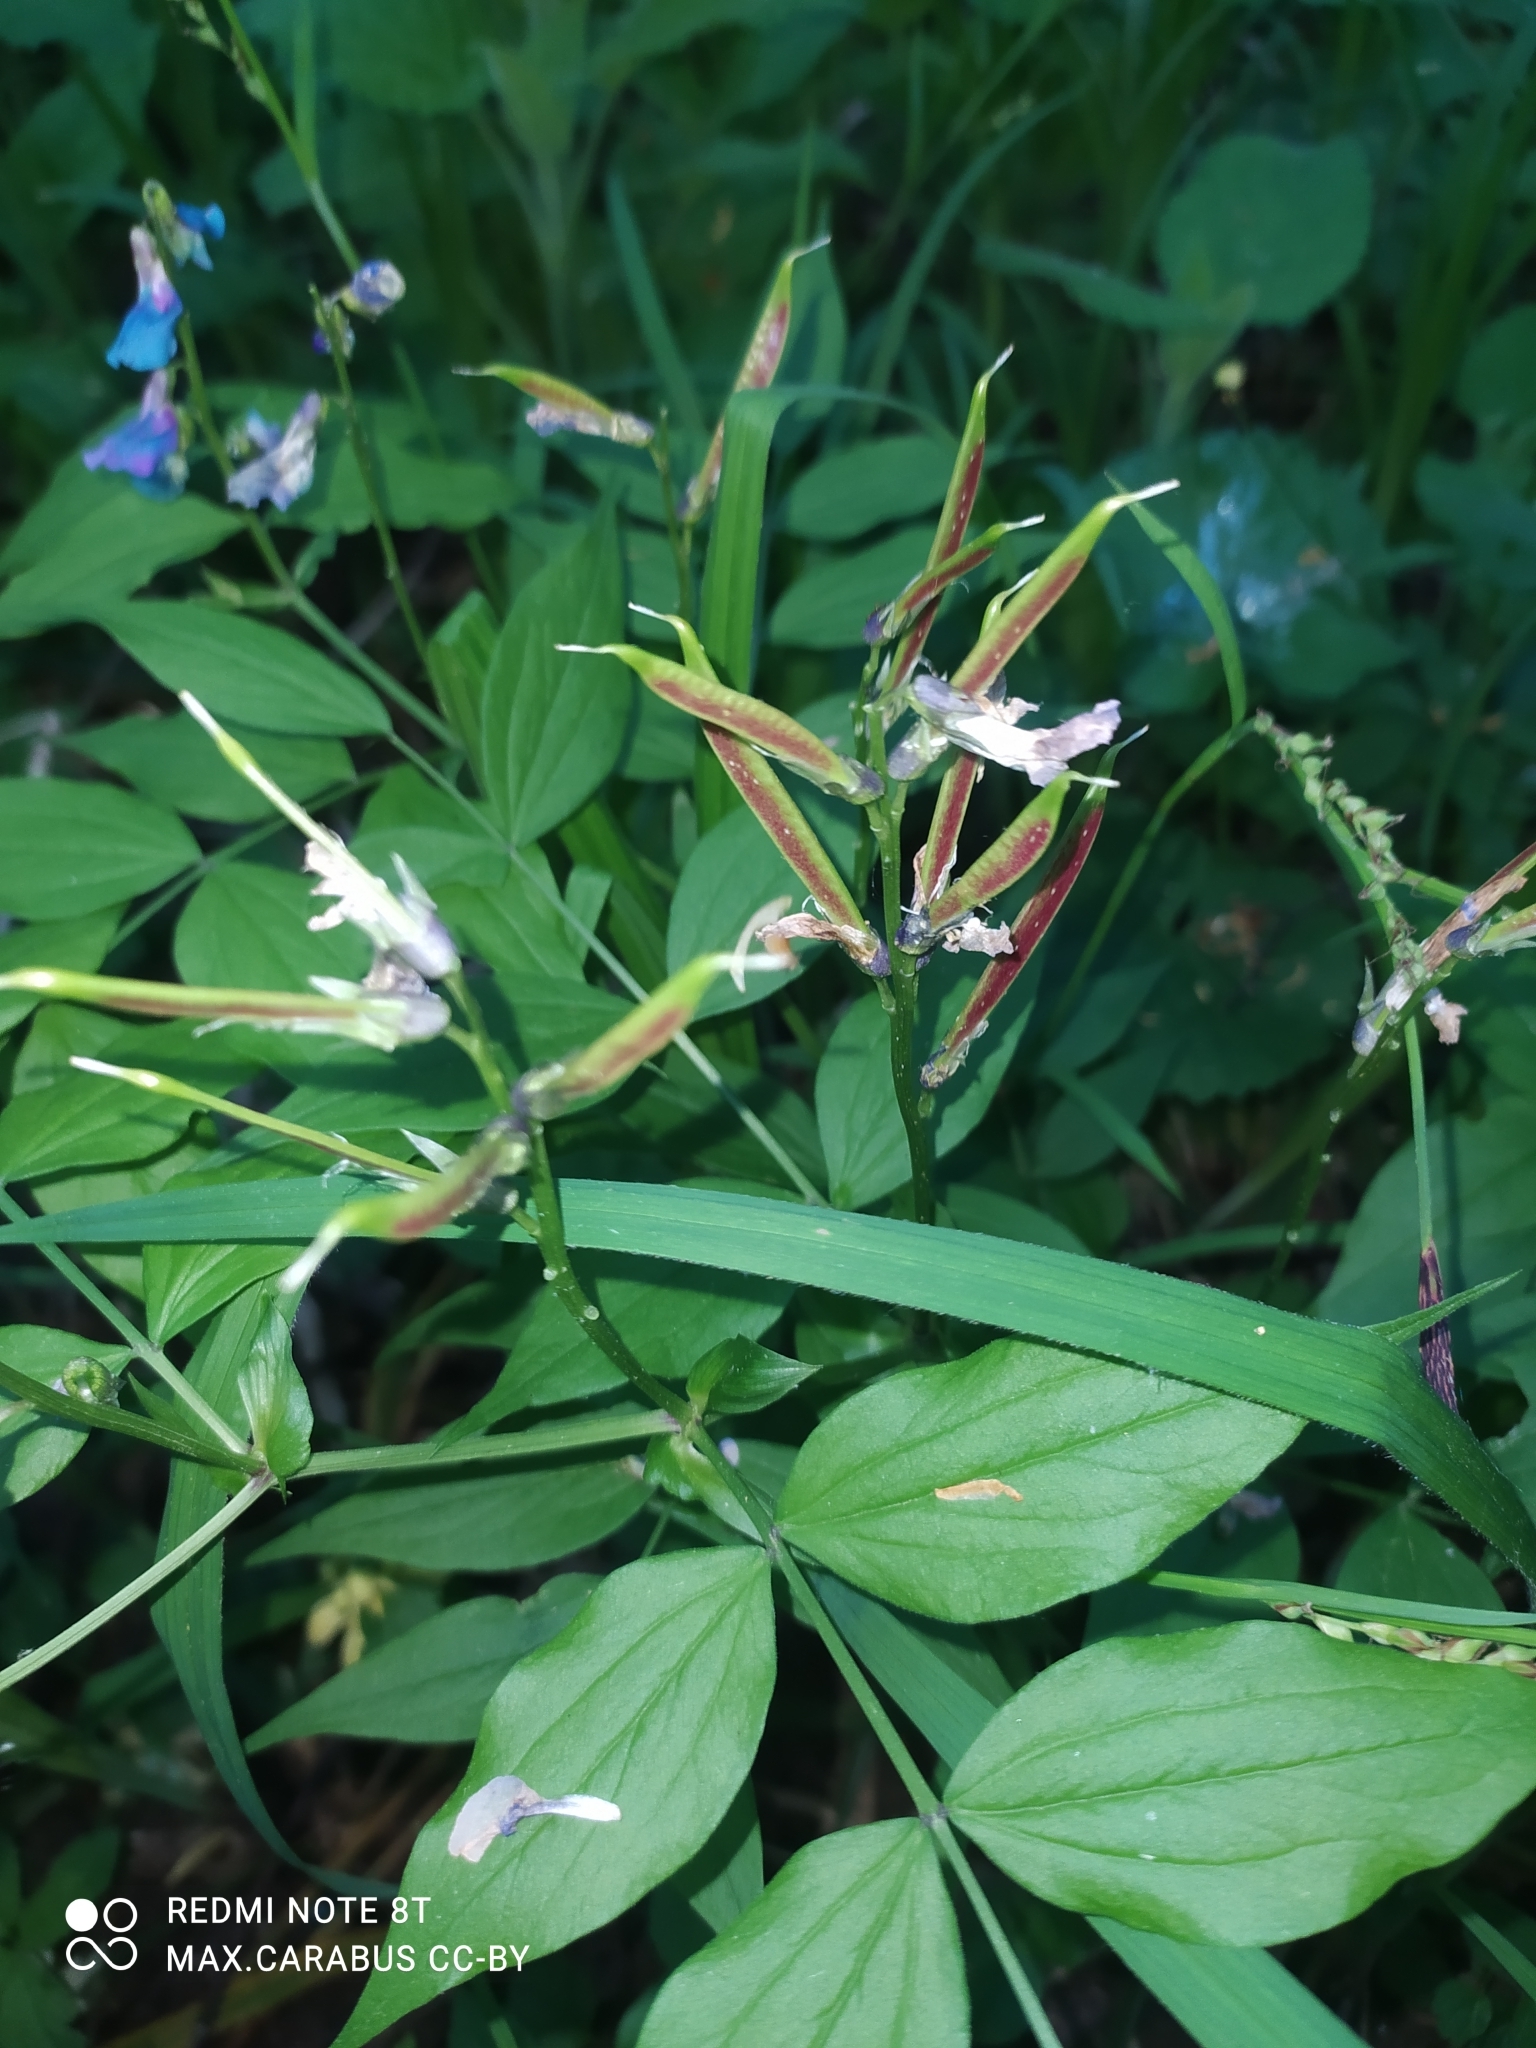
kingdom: Plantae
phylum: Tracheophyta
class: Magnoliopsida
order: Fabales
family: Fabaceae
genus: Lathyrus
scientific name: Lathyrus vernus
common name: Spring pea
